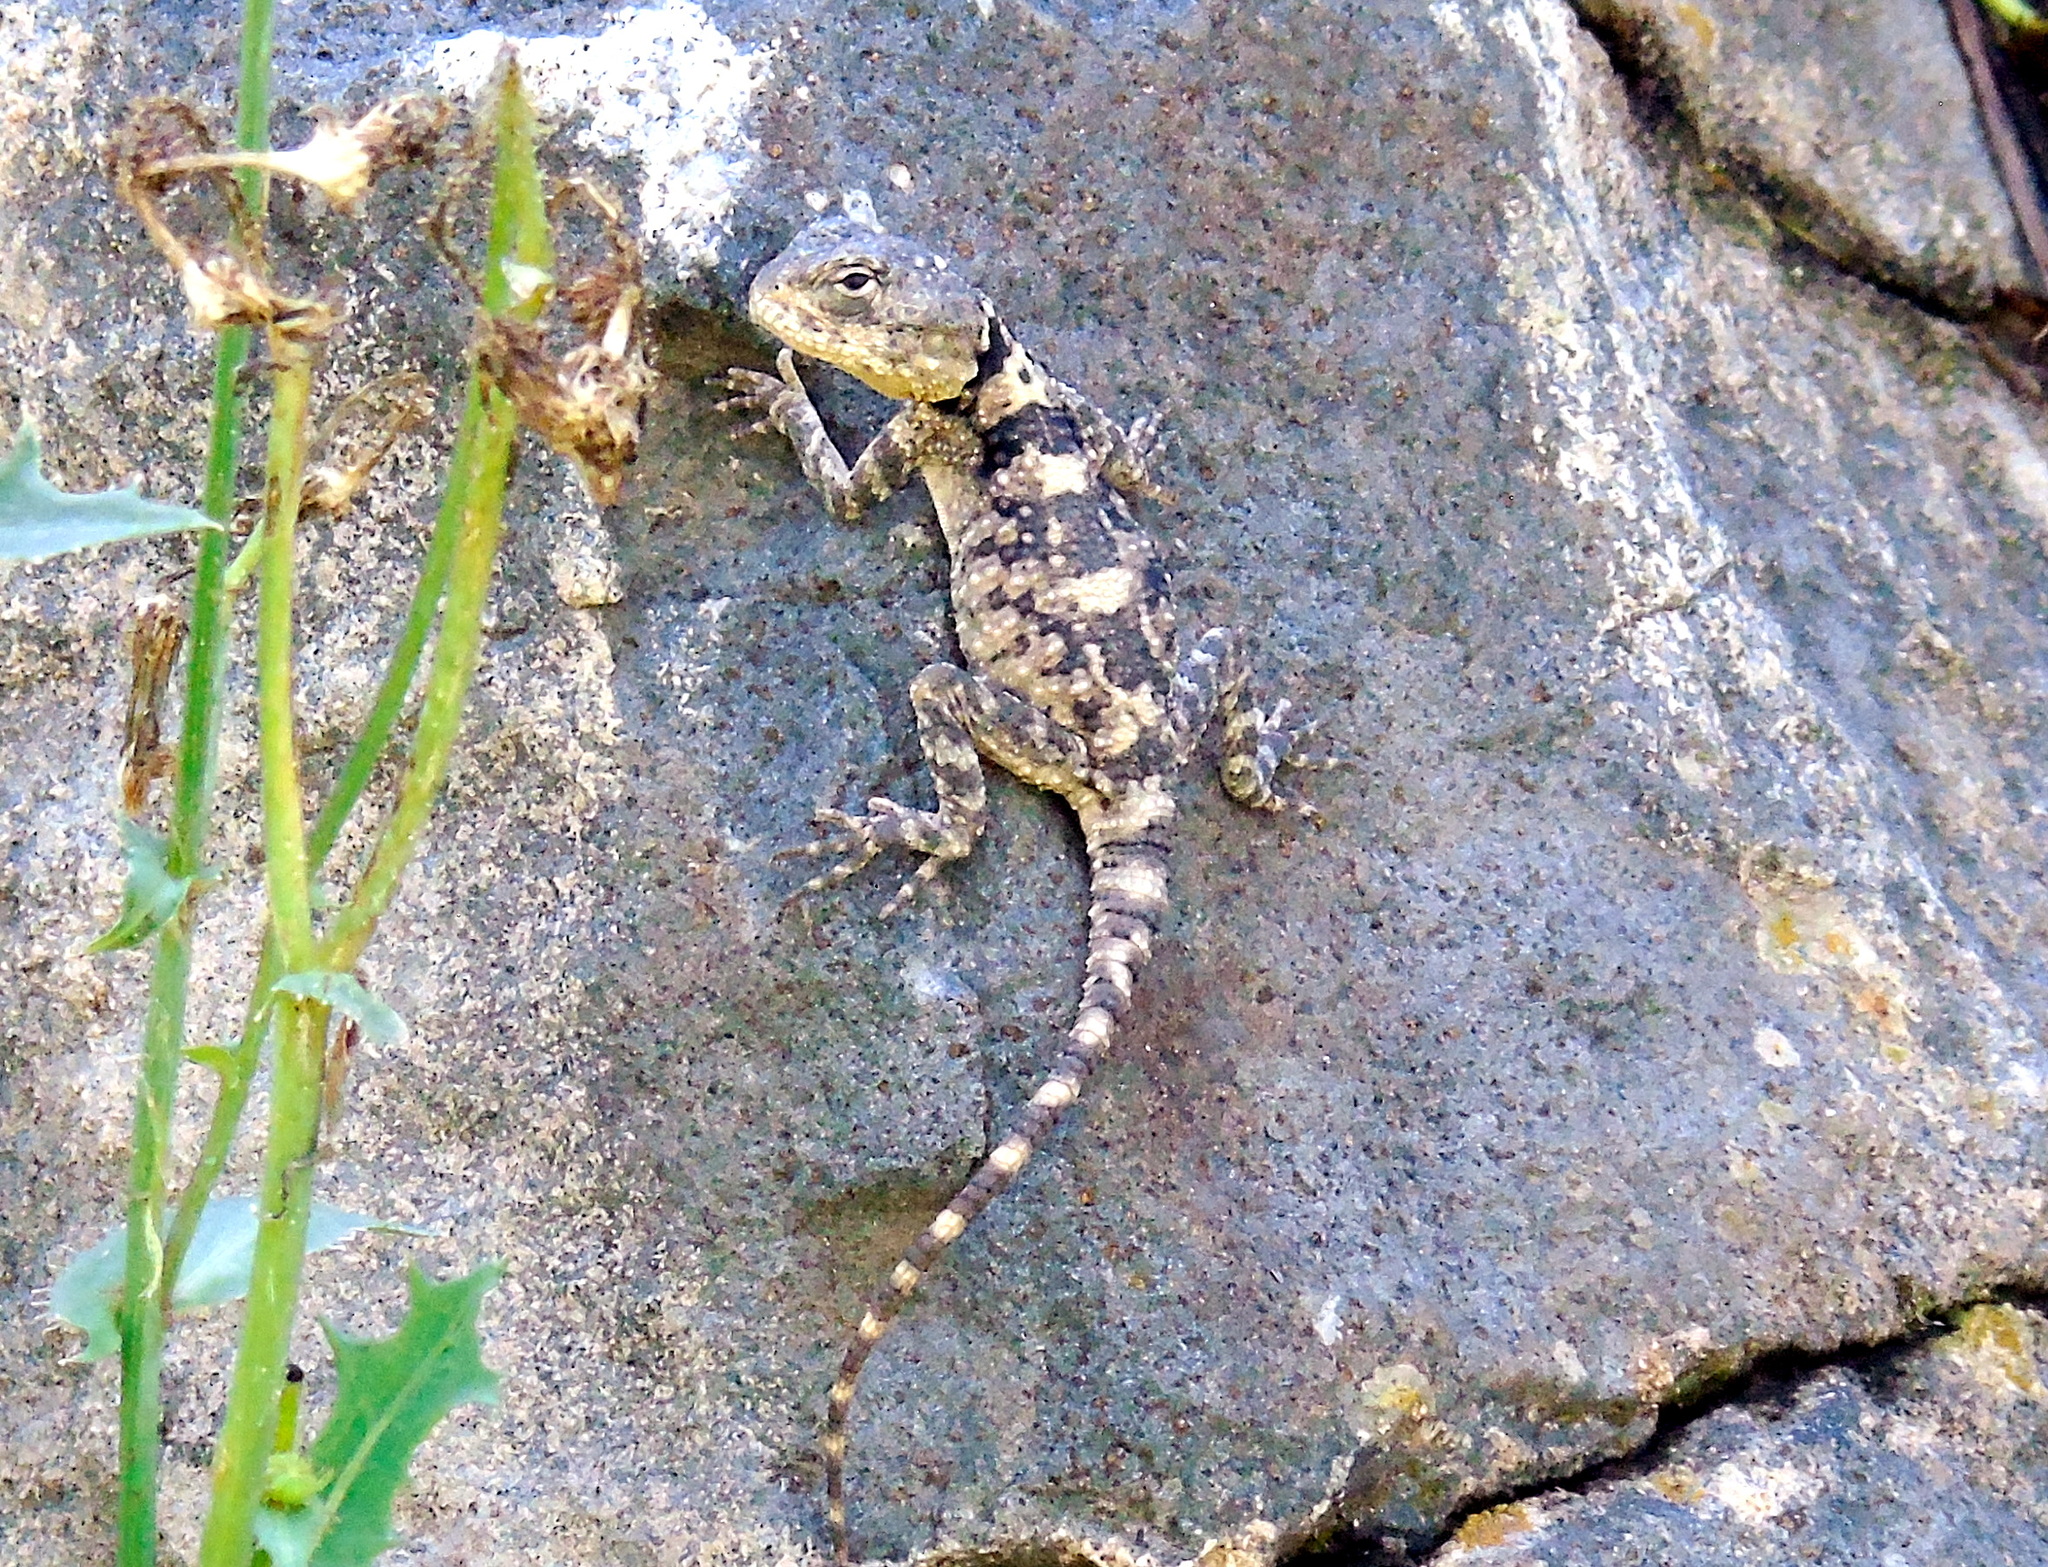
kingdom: Animalia
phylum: Chordata
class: Squamata
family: Agamidae
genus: Stellagama
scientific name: Stellagama stellio
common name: Starred agama
